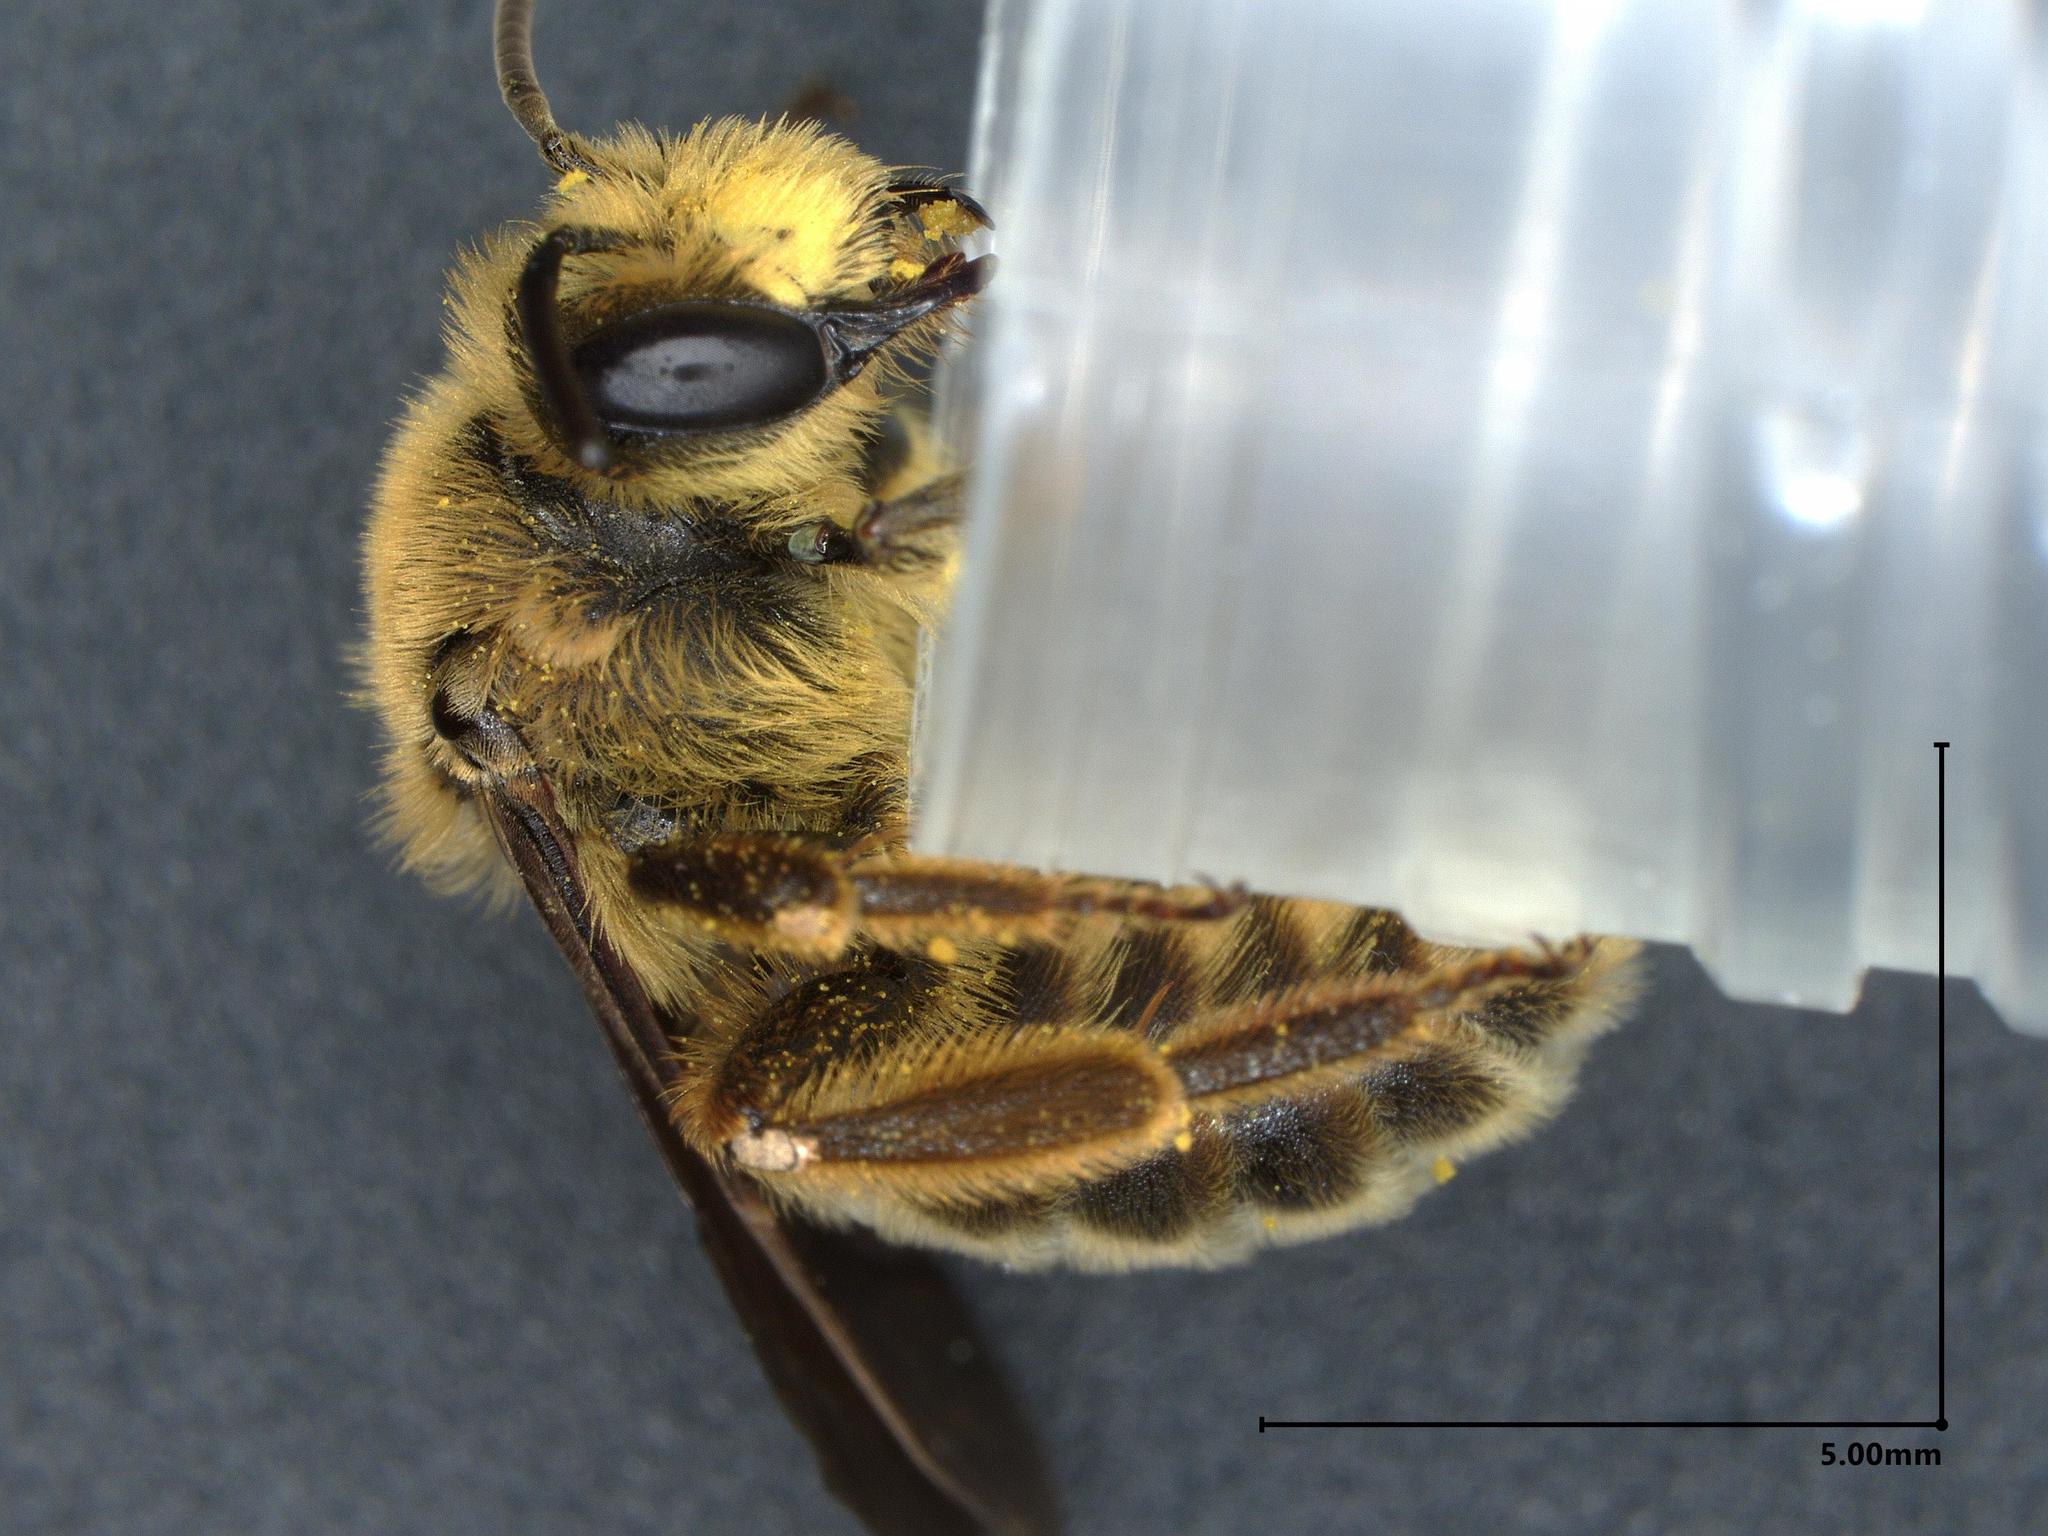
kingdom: Animalia
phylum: Arthropoda
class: Insecta
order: Hymenoptera
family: Andrenidae
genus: Andrena
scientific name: Andrena rudbeckiae
